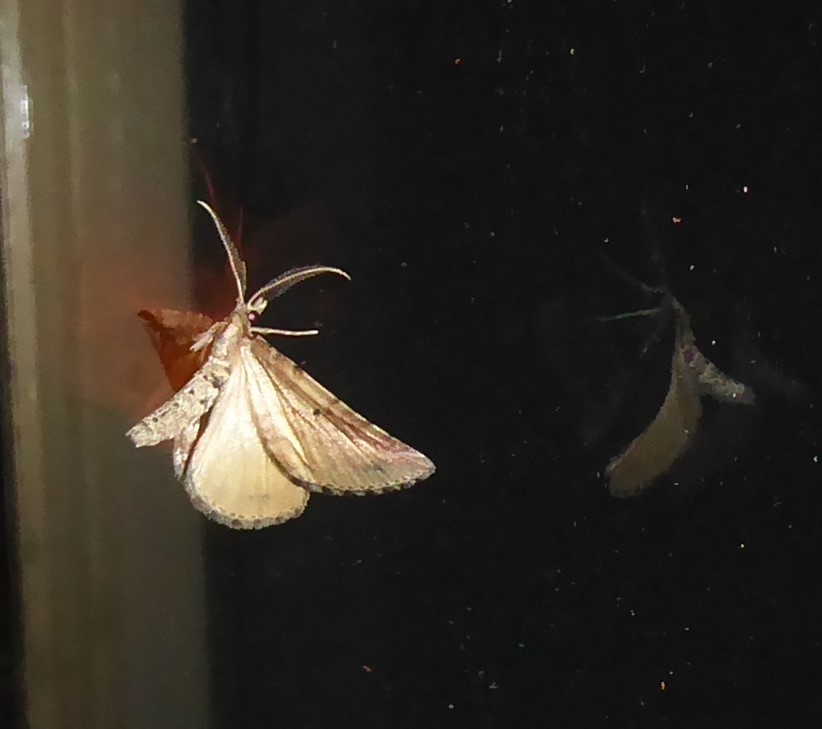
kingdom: Animalia
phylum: Arthropoda
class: Insecta
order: Lepidoptera
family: Geometridae
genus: Pseudocoremia
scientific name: Pseudocoremia indistincta
